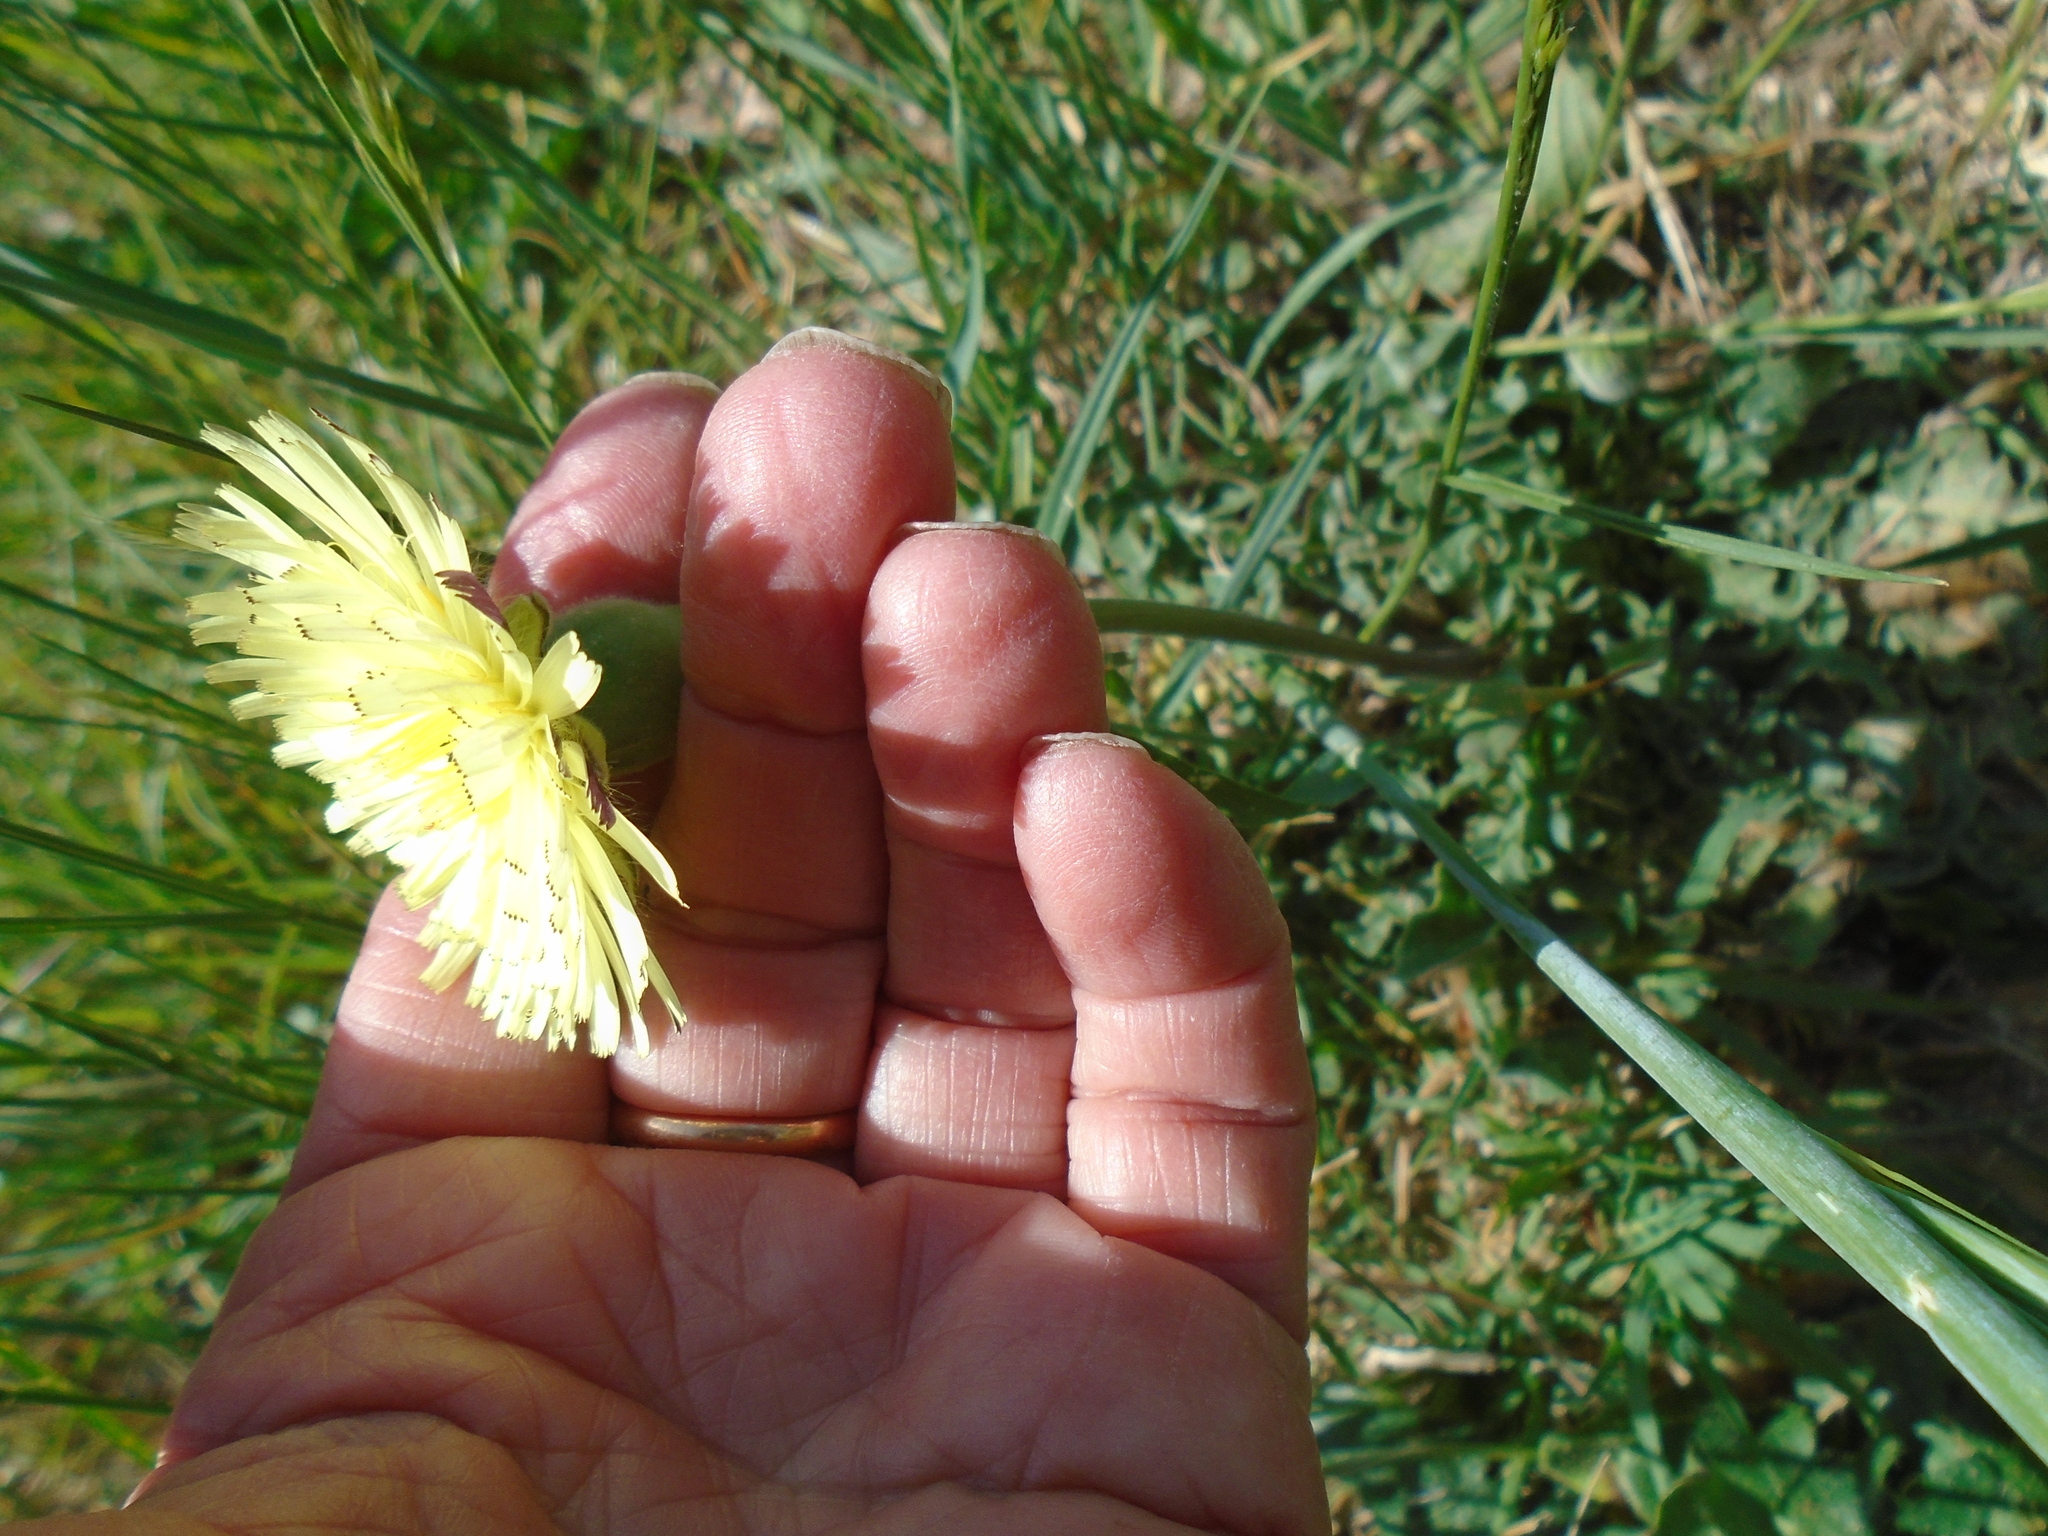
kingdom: Plantae
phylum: Tracheophyta
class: Magnoliopsida
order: Asterales
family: Asteraceae
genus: Urospermum
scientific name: Urospermum dalechampii
